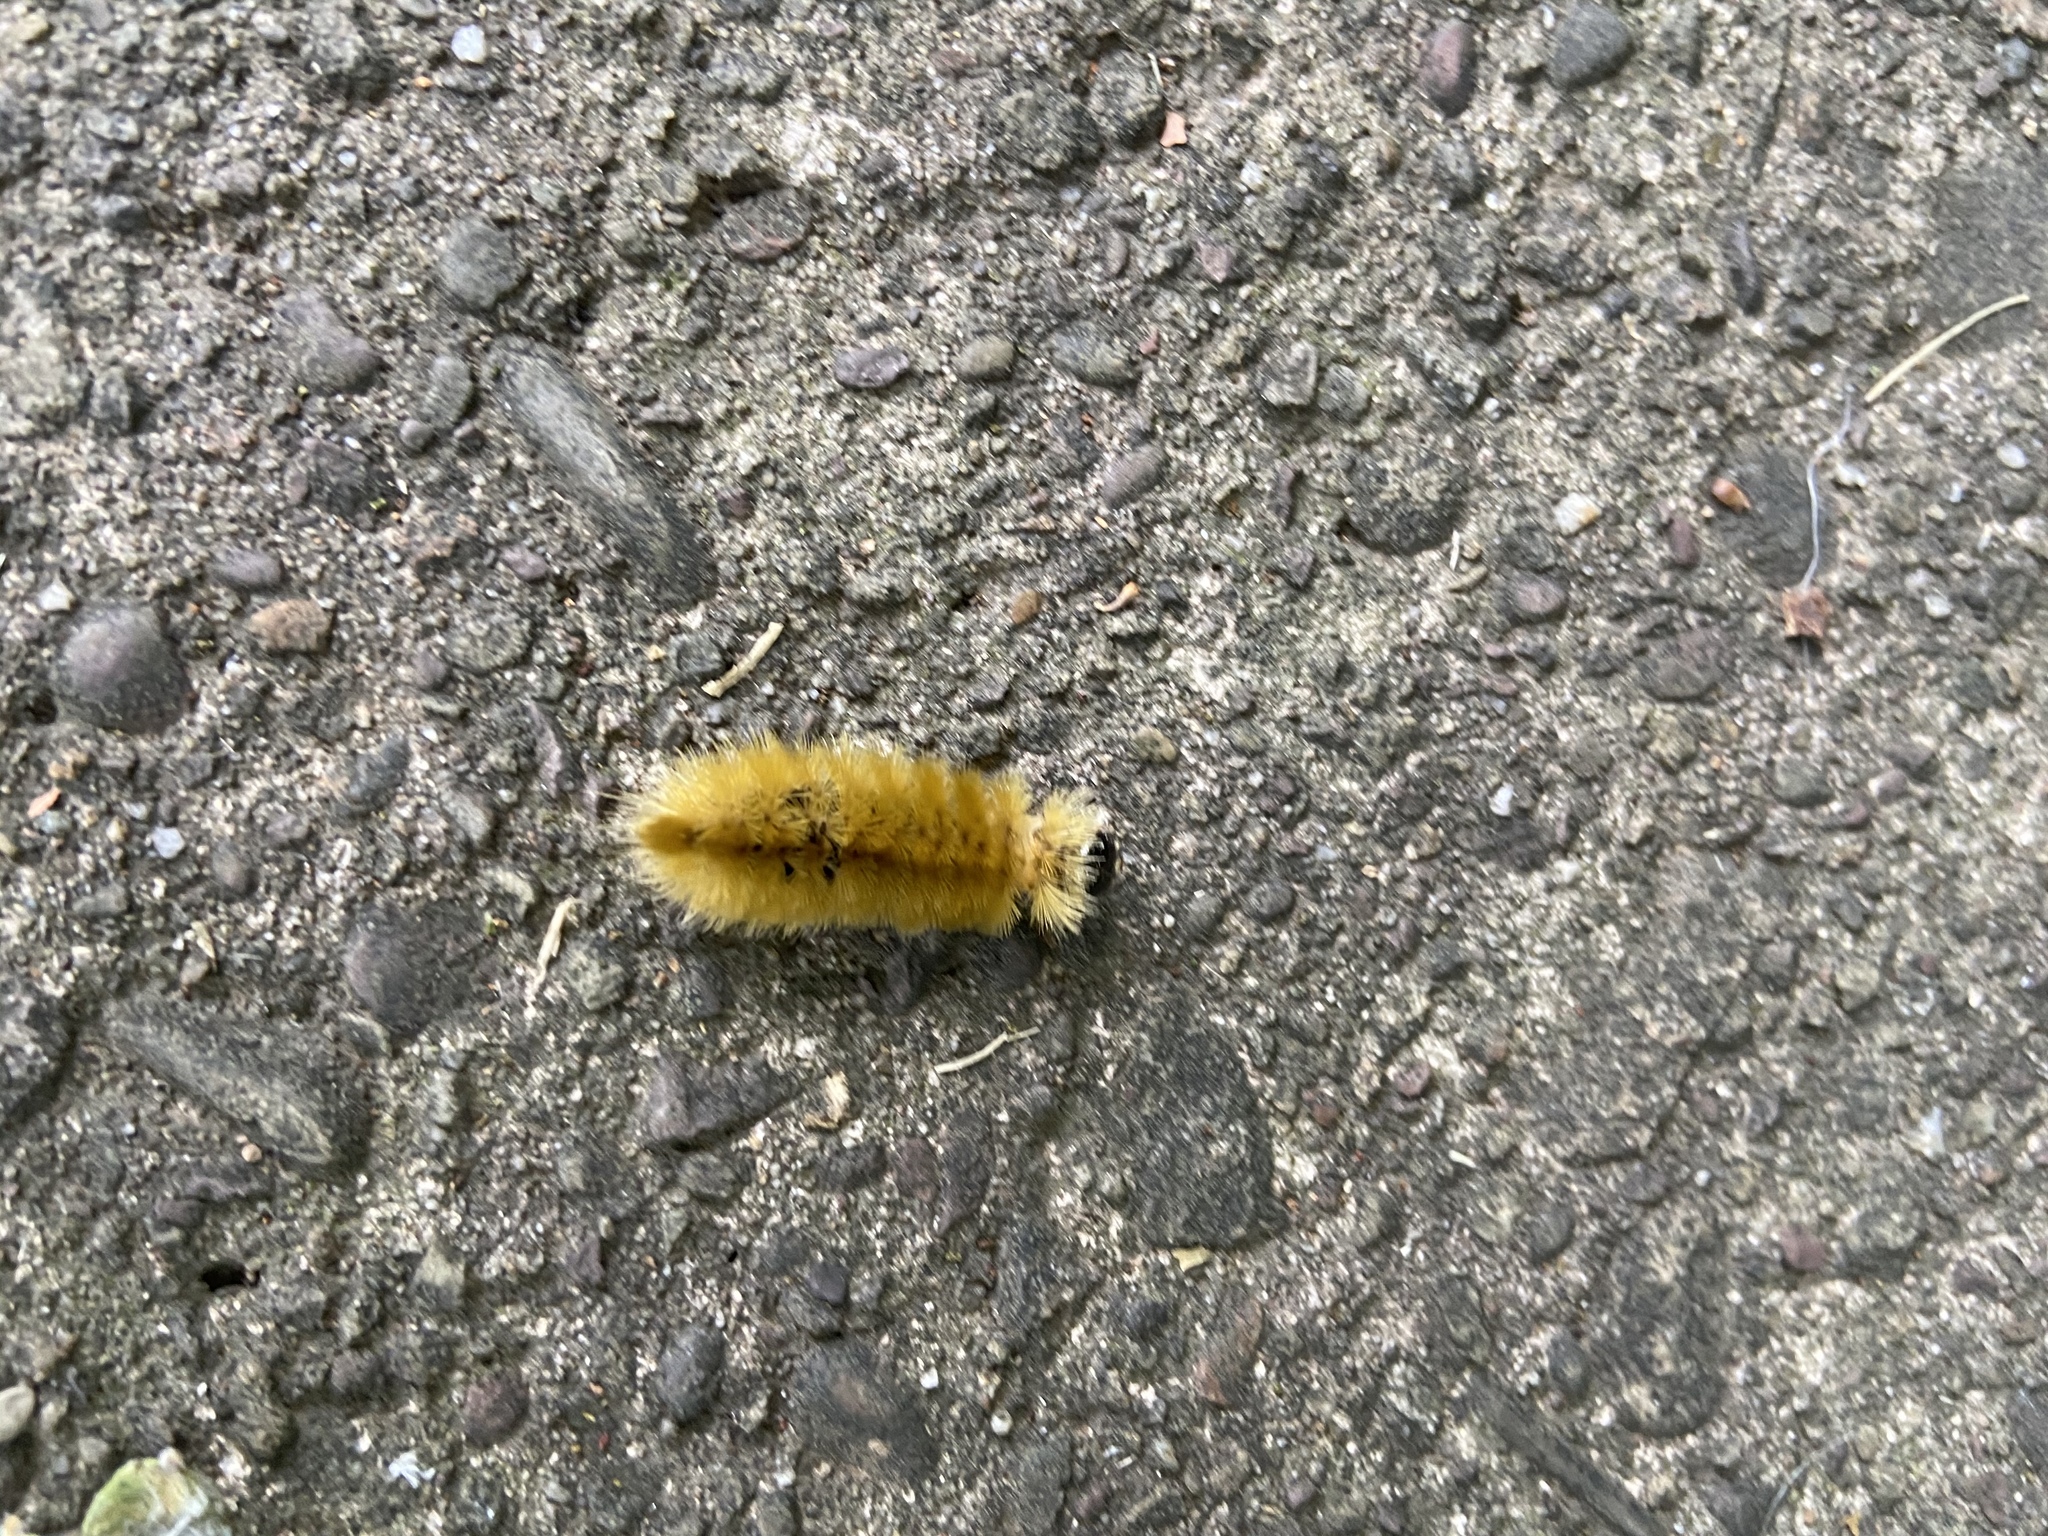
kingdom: Animalia
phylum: Arthropoda
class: Insecta
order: Lepidoptera
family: Erebidae
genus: Halysidota
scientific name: Halysidota tessellaris
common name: Banded tussock moth
